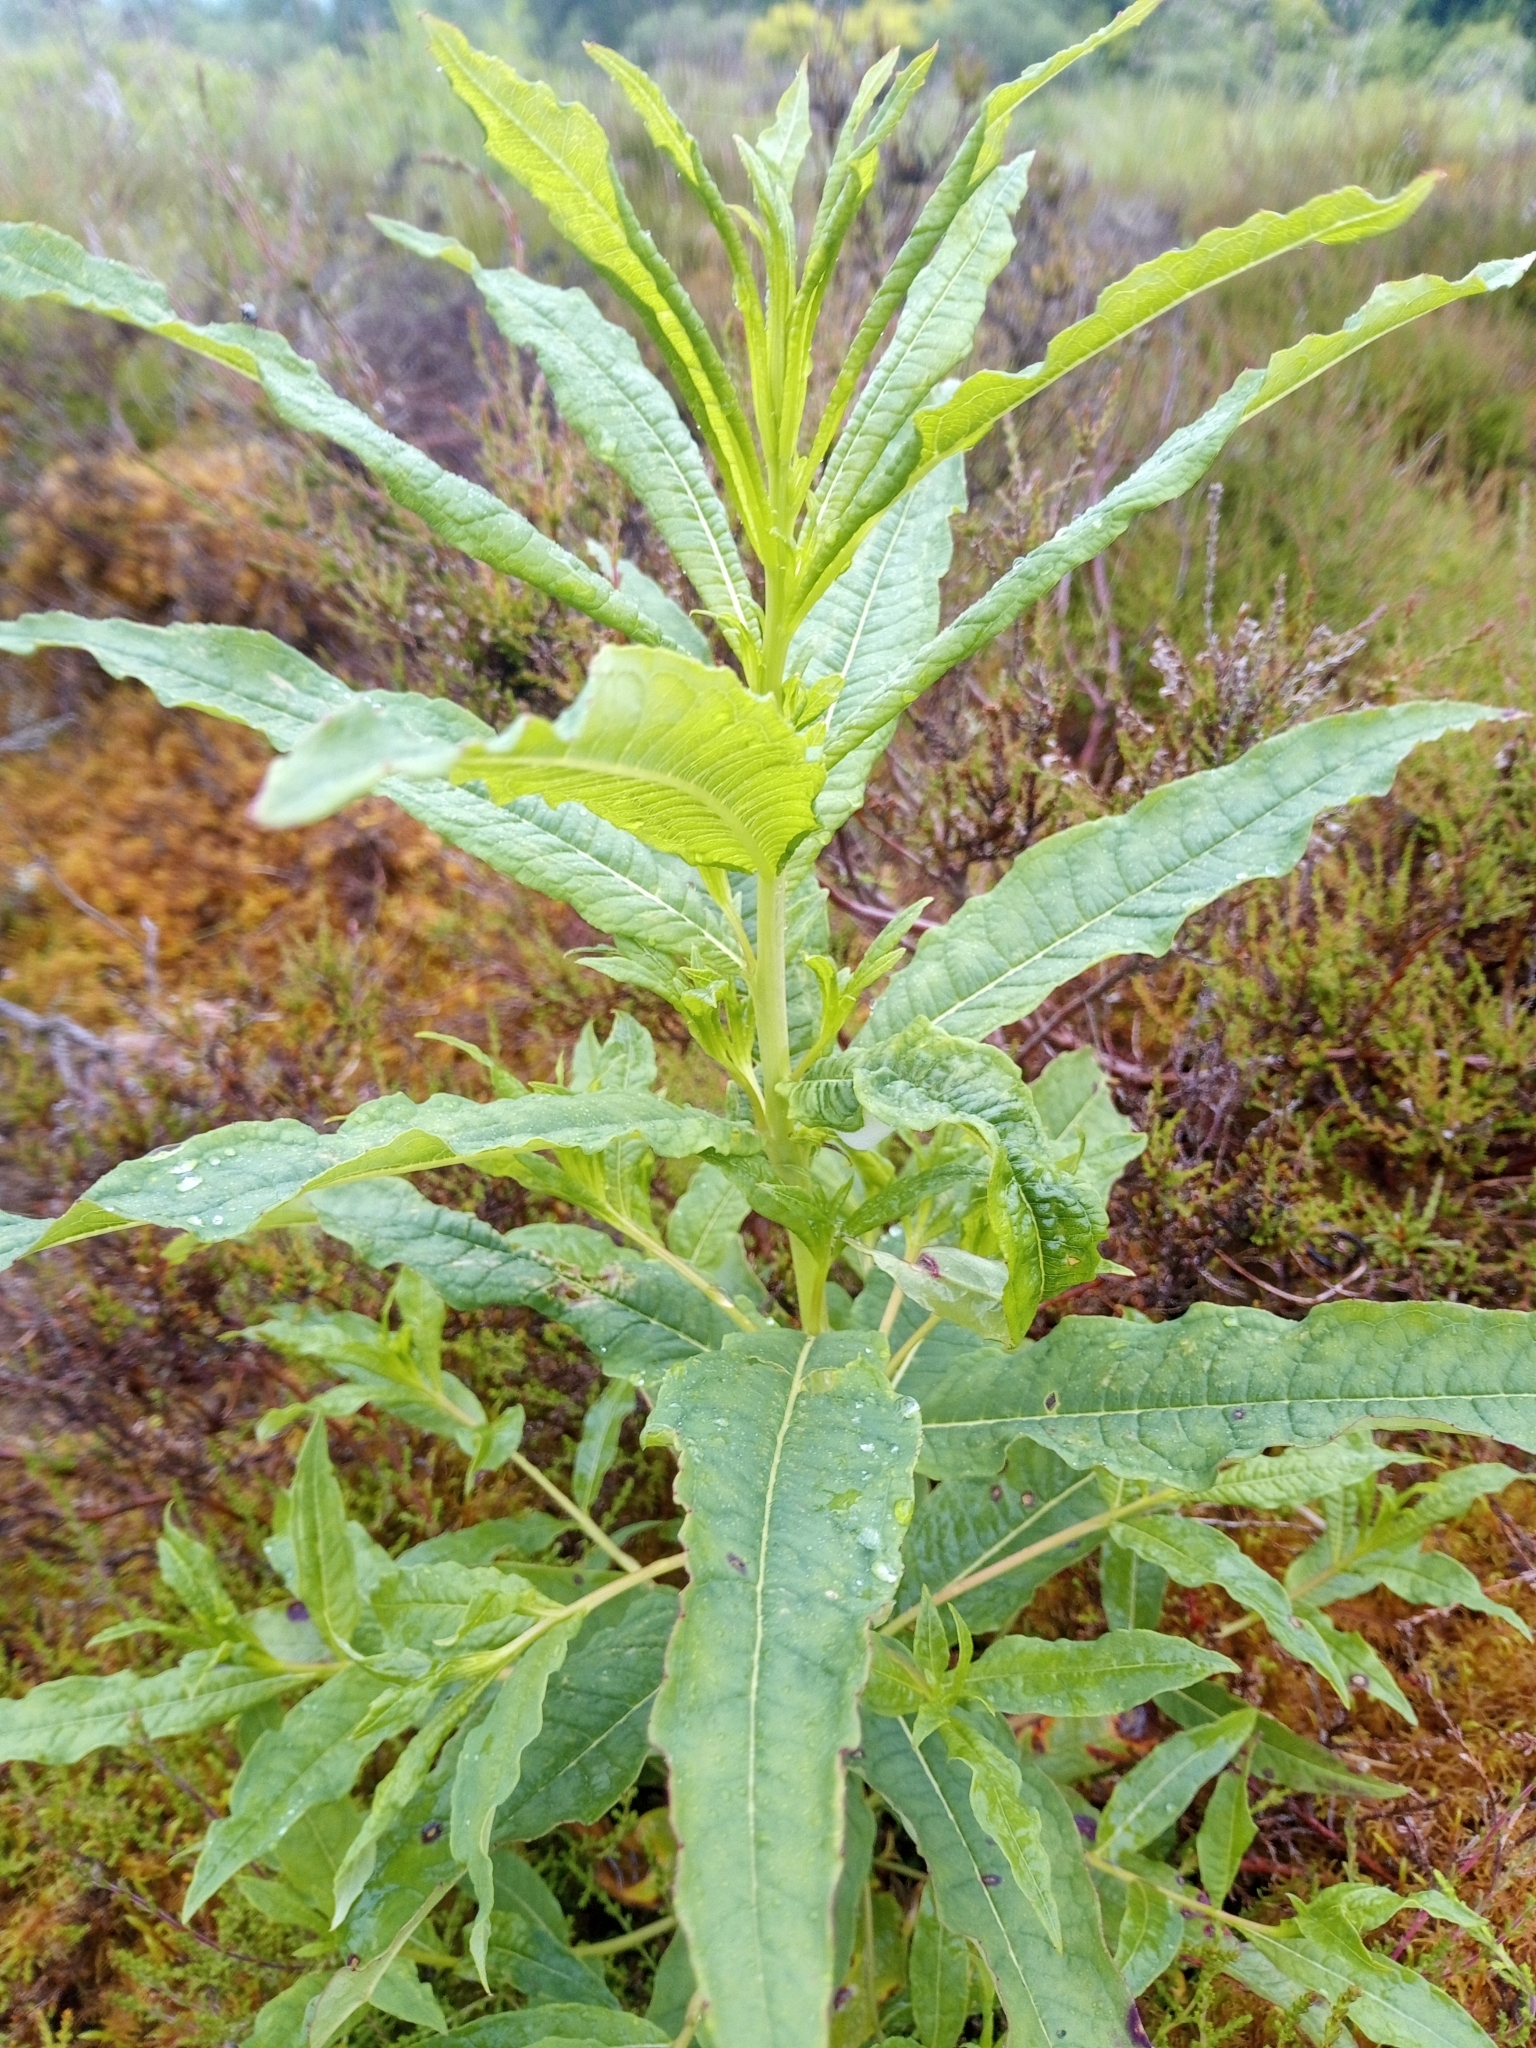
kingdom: Plantae
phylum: Tracheophyta
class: Magnoliopsida
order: Myrtales
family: Onagraceae
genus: Chamaenerion
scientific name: Chamaenerion angustifolium
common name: Fireweed
